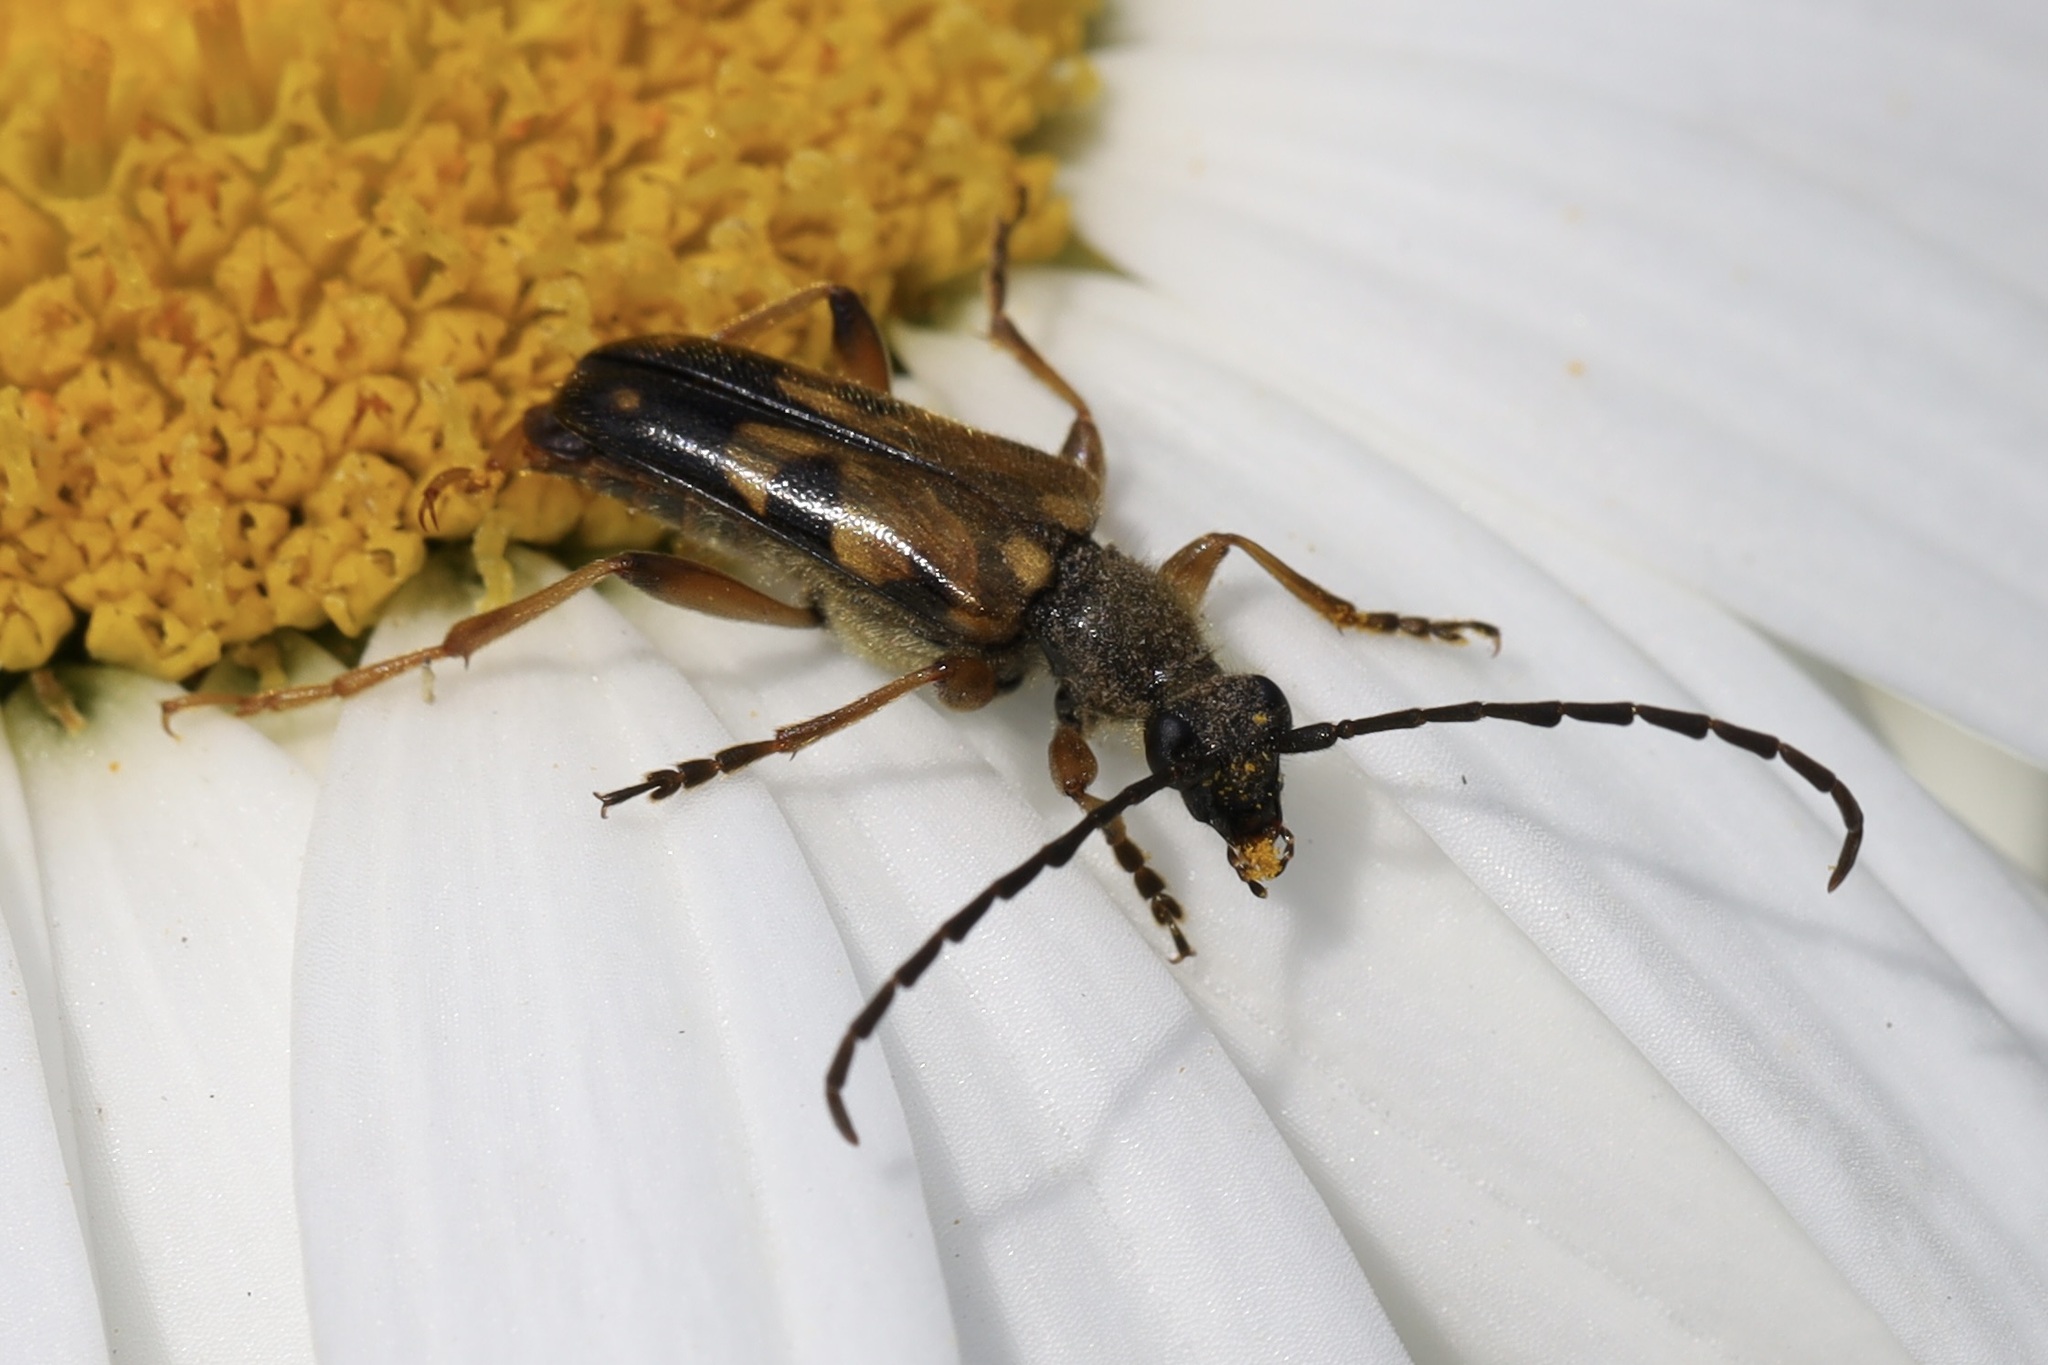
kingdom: Animalia
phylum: Arthropoda
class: Insecta
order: Coleoptera
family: Cerambycidae
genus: Xestoleptura
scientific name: Xestoleptura crassipes
